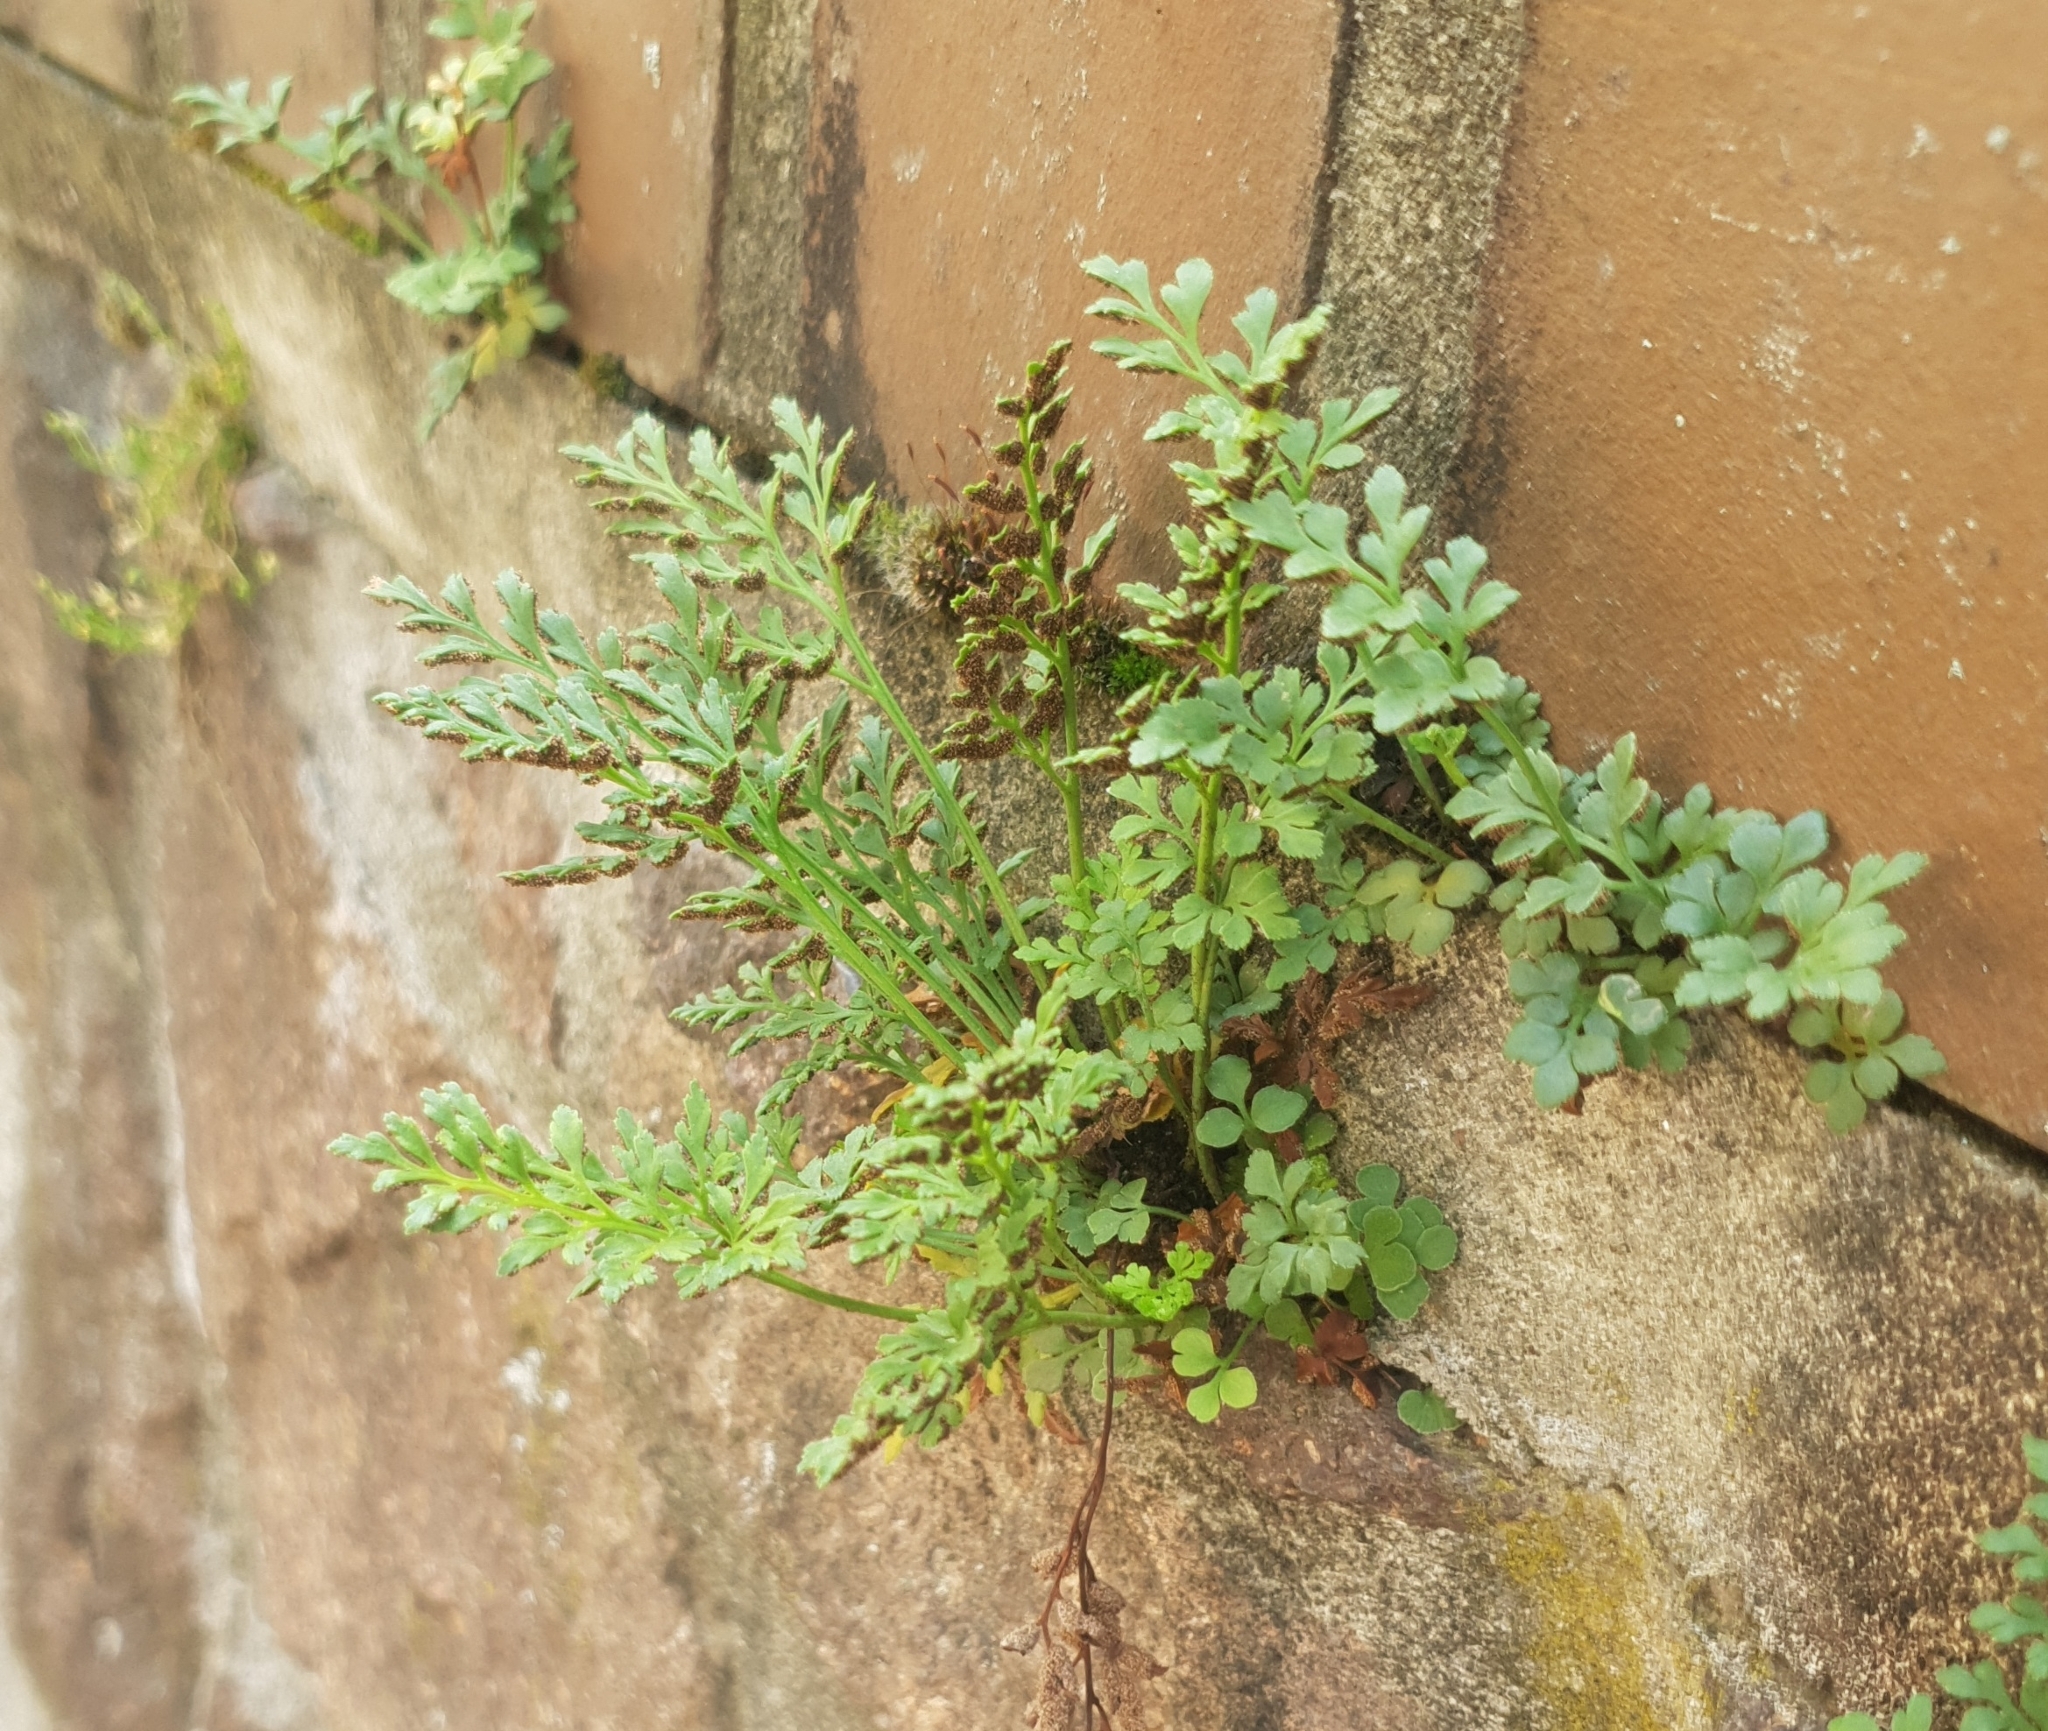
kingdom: Plantae
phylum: Tracheophyta
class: Polypodiopsida
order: Polypodiales
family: Aspleniaceae
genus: Asplenium
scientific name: Asplenium ruta-muraria
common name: Wall-rue
